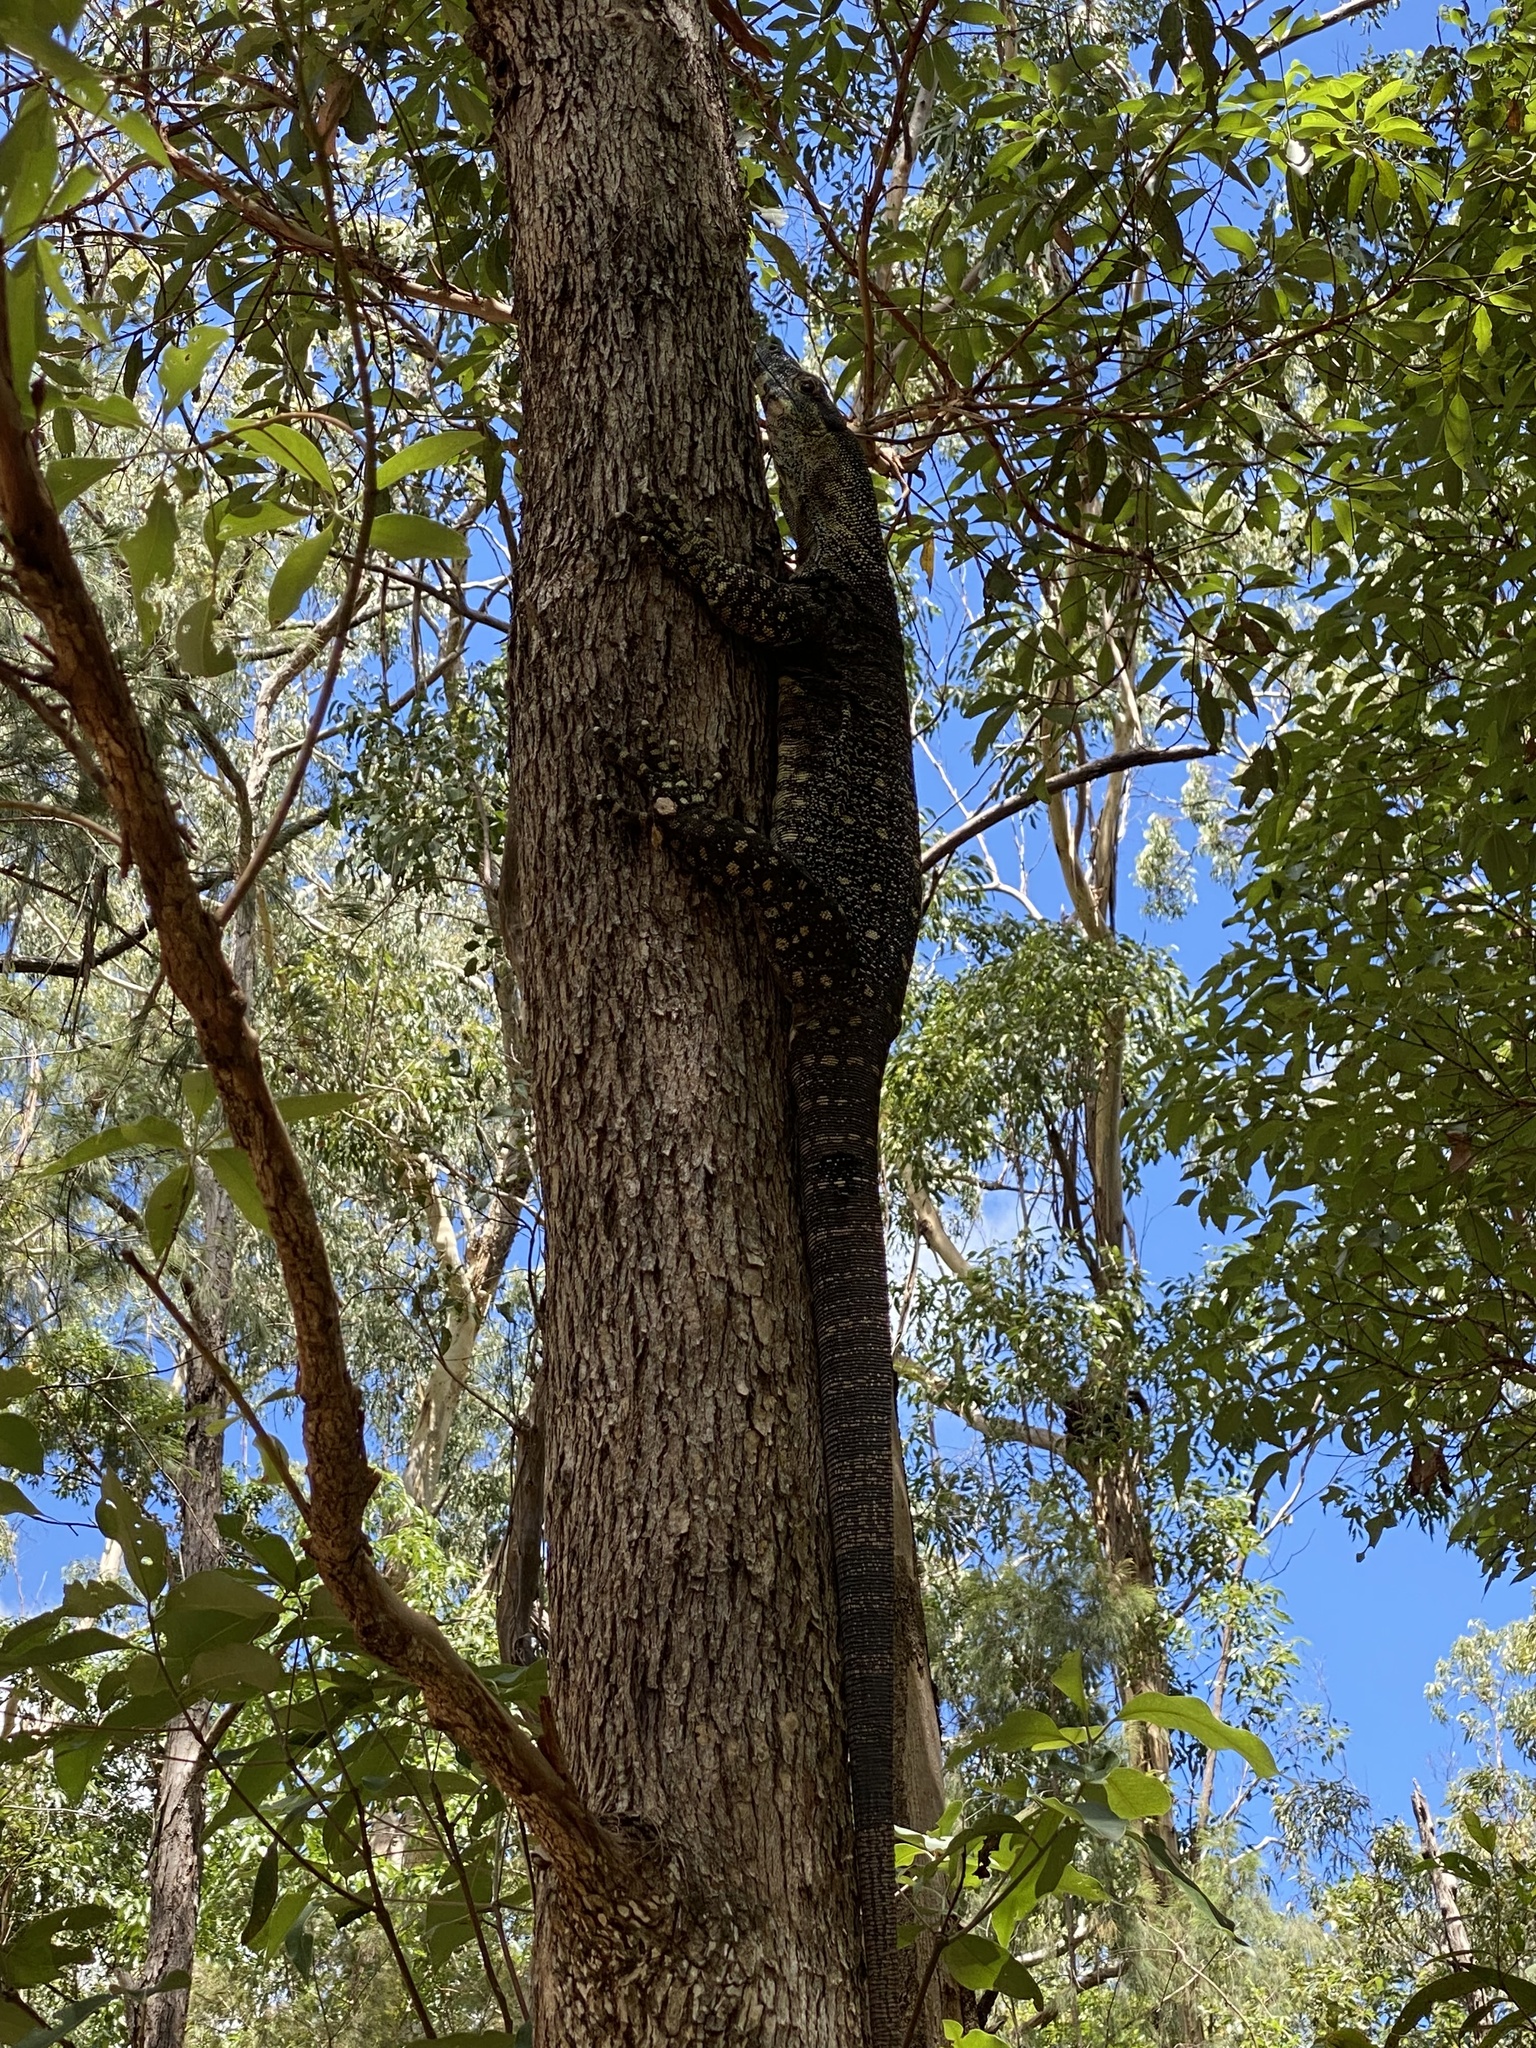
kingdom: Animalia
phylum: Chordata
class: Squamata
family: Varanidae
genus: Varanus
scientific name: Varanus varius
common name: Lace monitor
